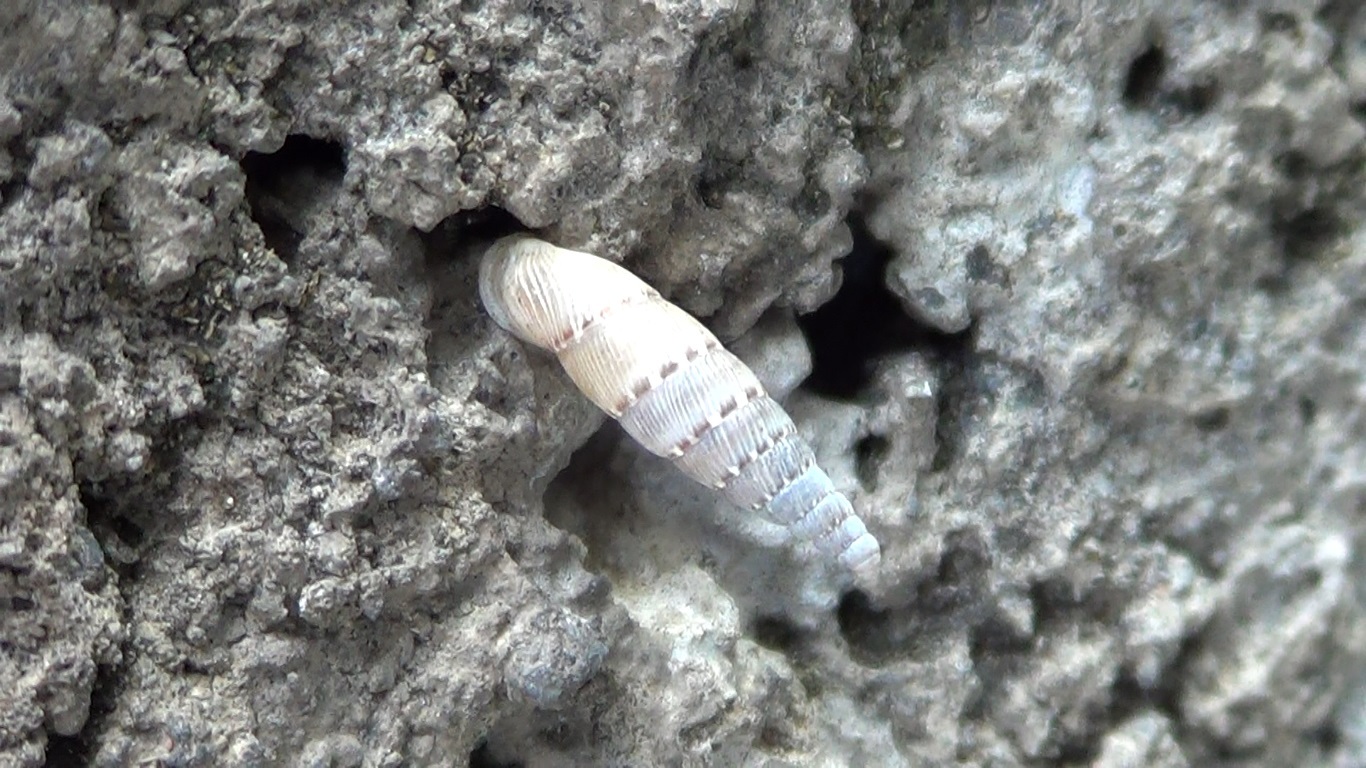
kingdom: Animalia
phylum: Mollusca
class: Gastropoda
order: Stylommatophora
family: Clausiliidae
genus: Papillifera
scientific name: Papillifera papillaris
